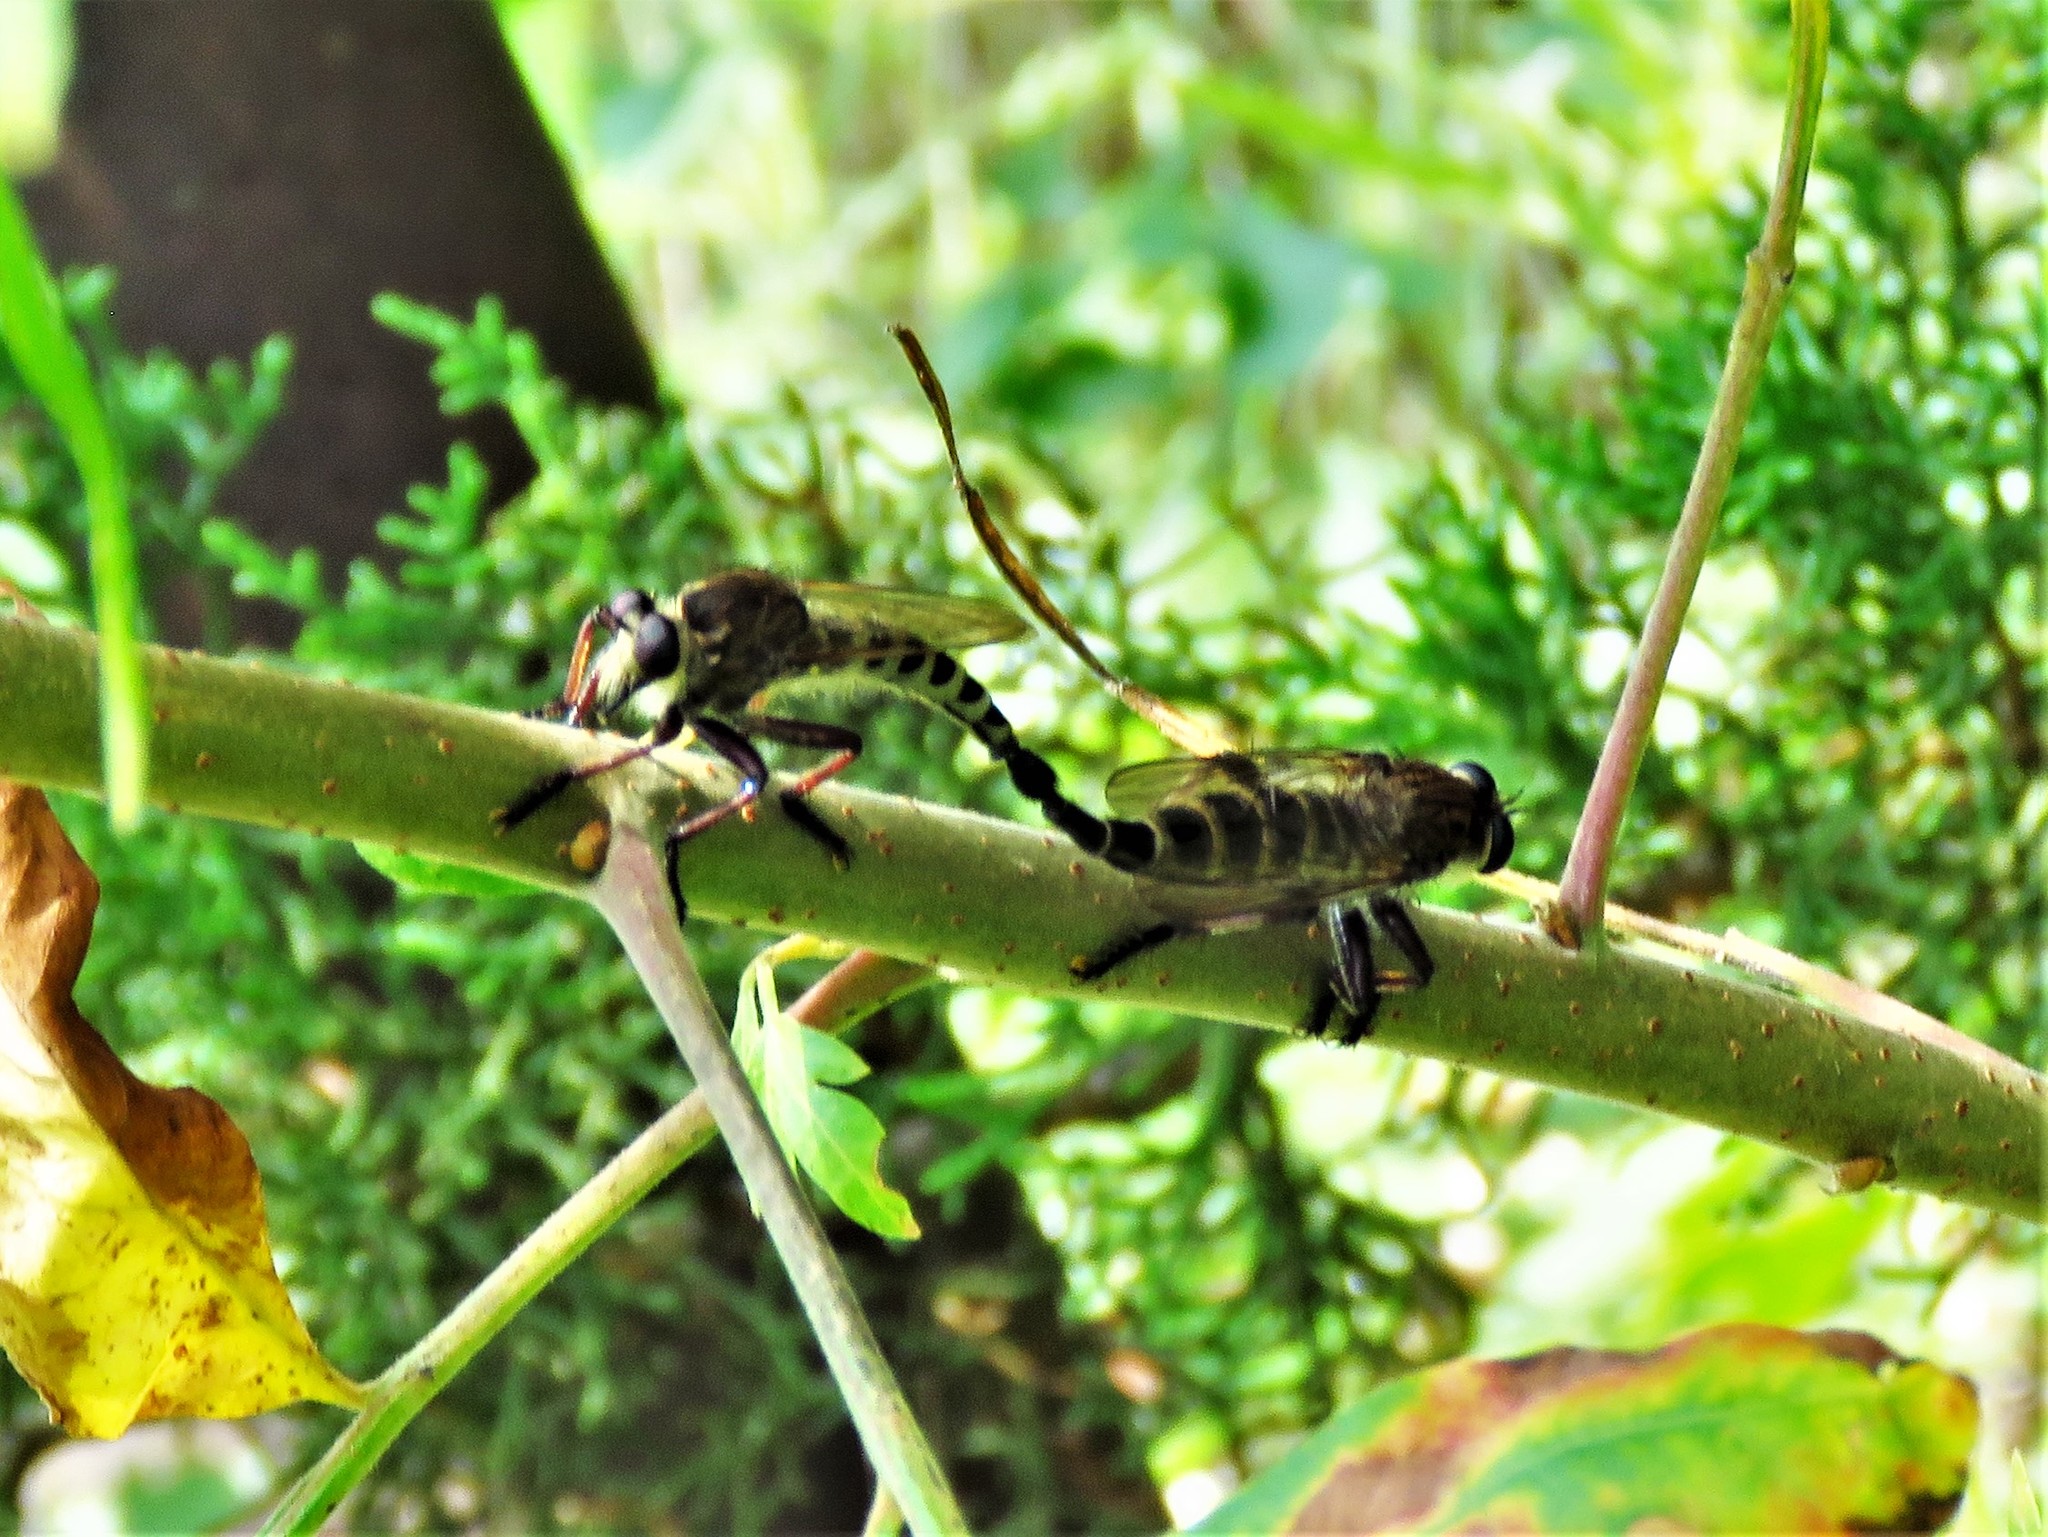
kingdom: Animalia
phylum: Arthropoda
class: Insecta
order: Diptera
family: Asilidae
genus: Promachus
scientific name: Promachus hinei
